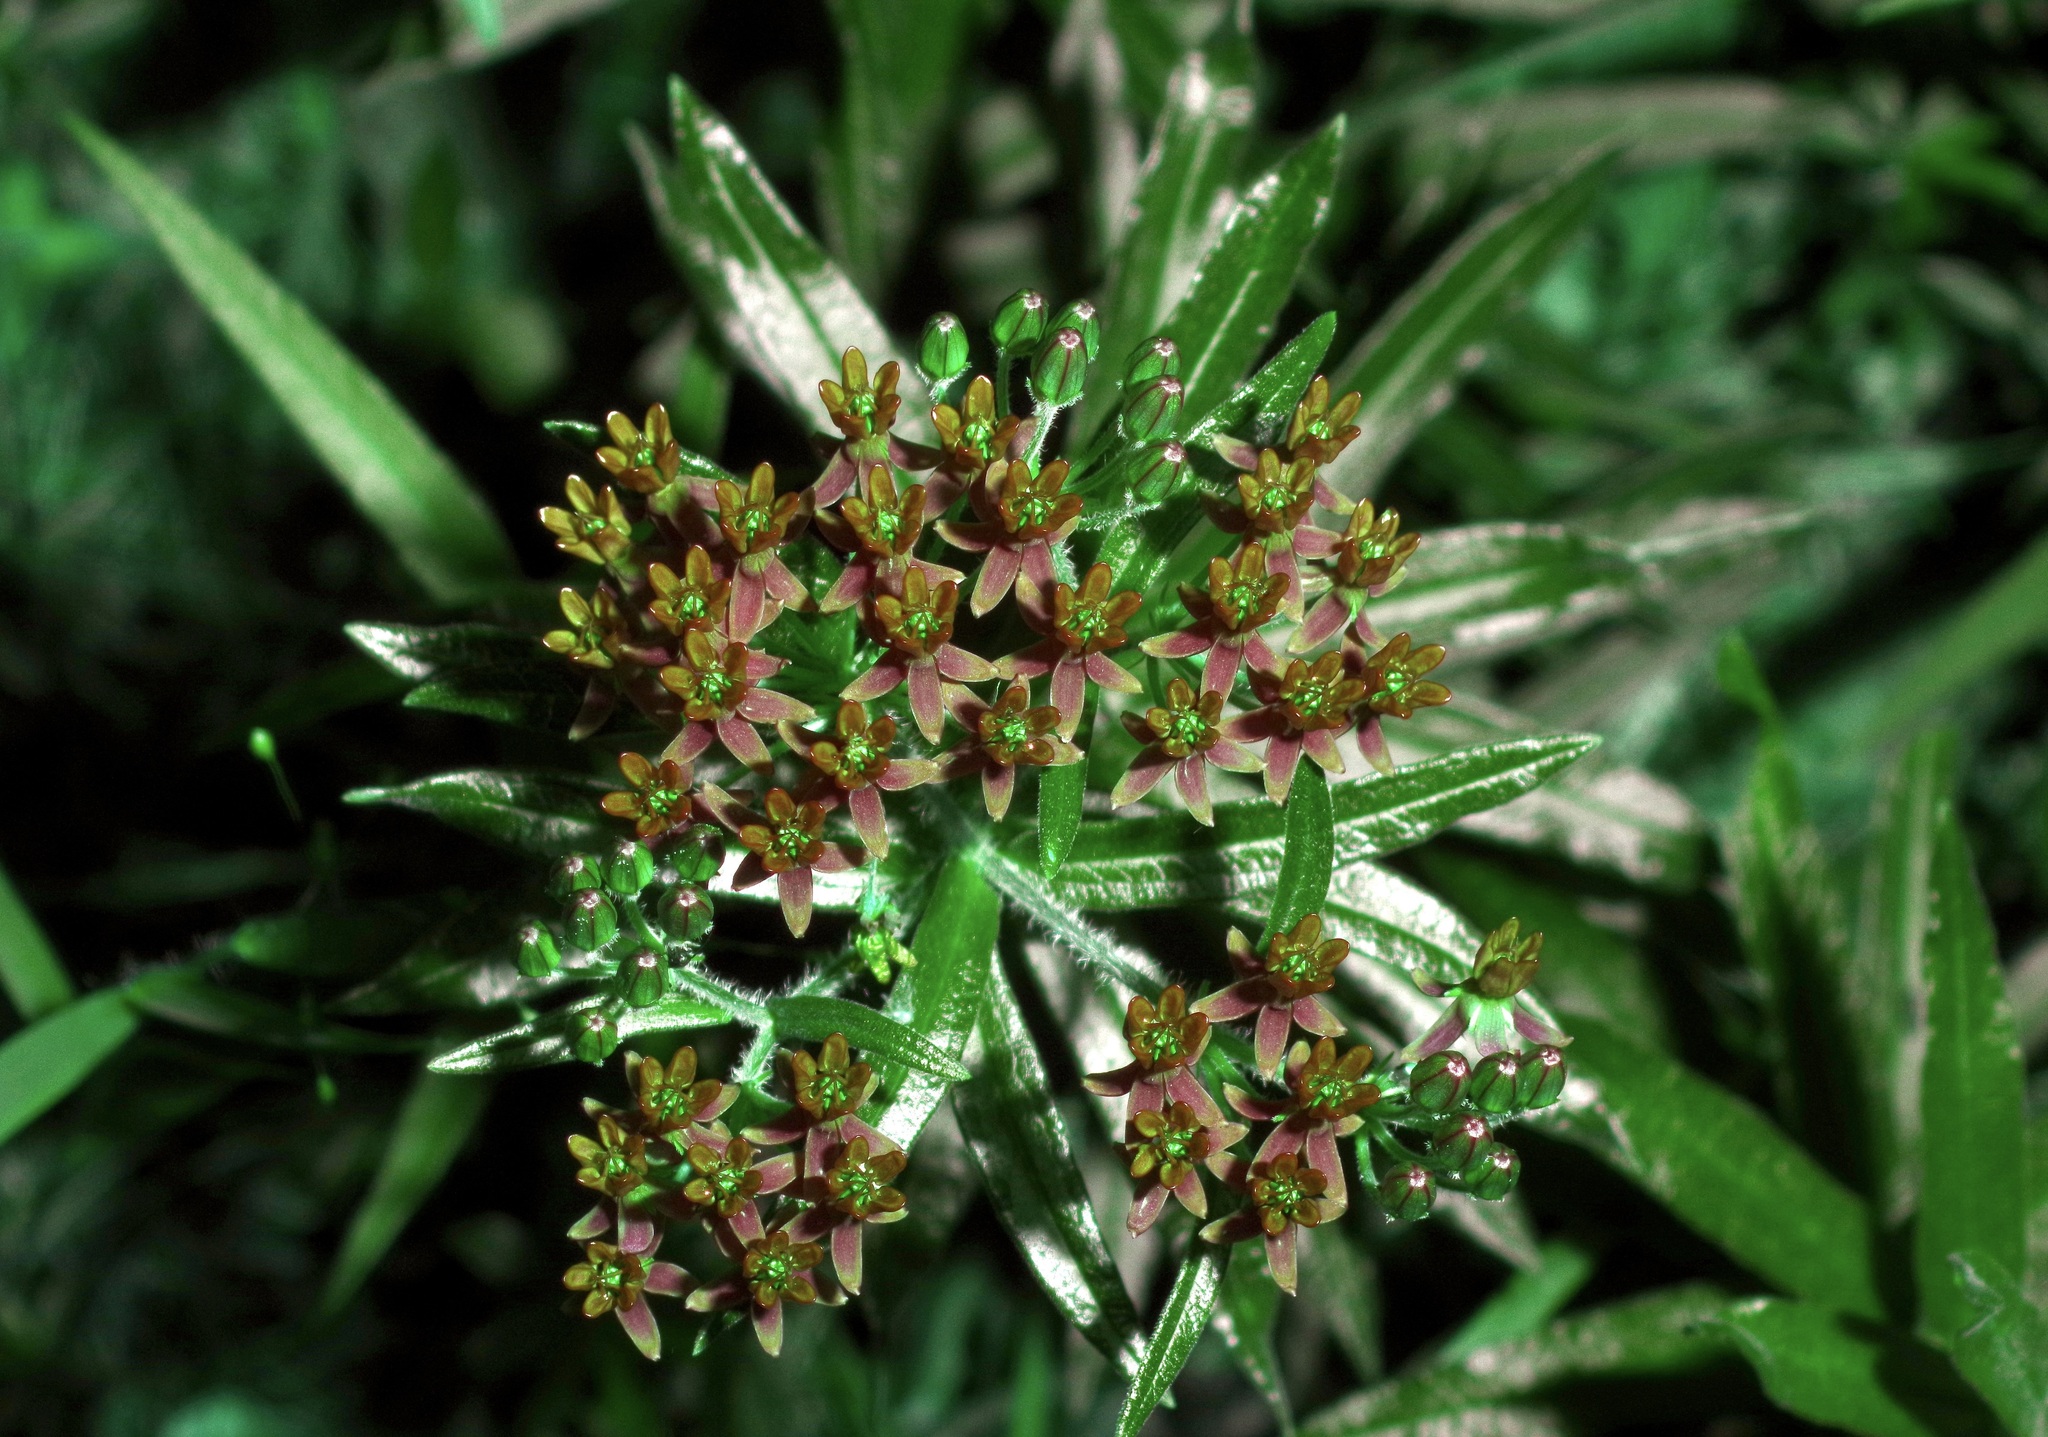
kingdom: Plantae
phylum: Tracheophyta
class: Magnoliopsida
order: Gentianales
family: Apocynaceae
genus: Asclepias
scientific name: Asclepias tuberosa
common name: Butterfly milkweed
